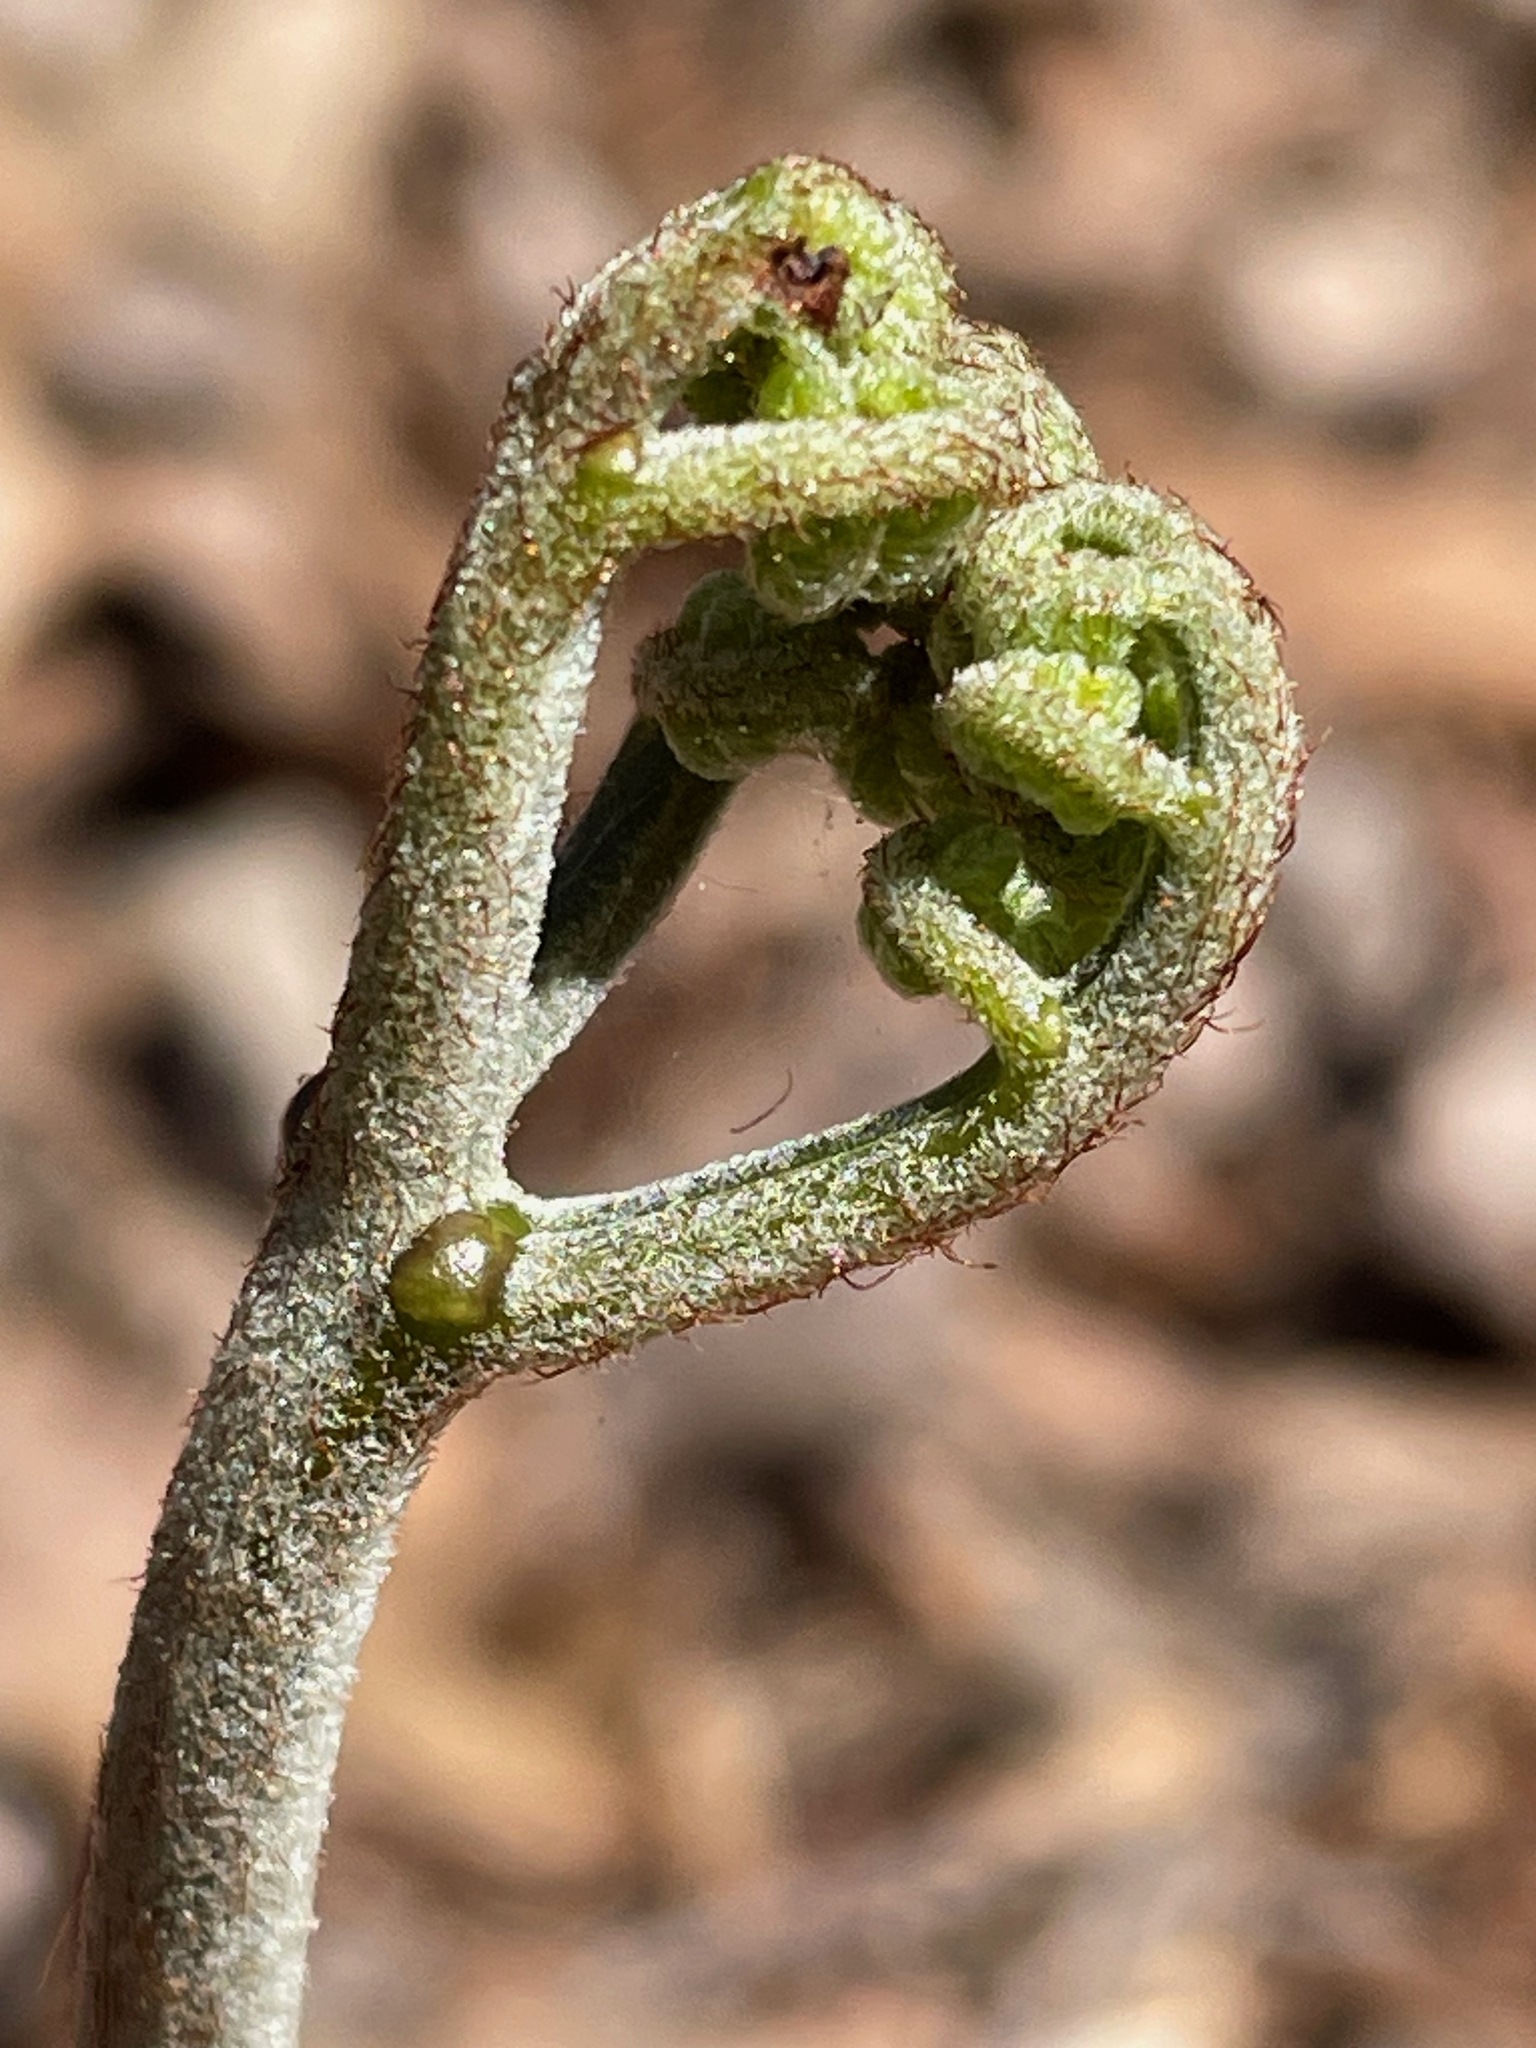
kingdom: Plantae
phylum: Tracheophyta
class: Polypodiopsida
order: Polypodiales
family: Dennstaedtiaceae
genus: Pteridium
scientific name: Pteridium aquilinum
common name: Bracken
